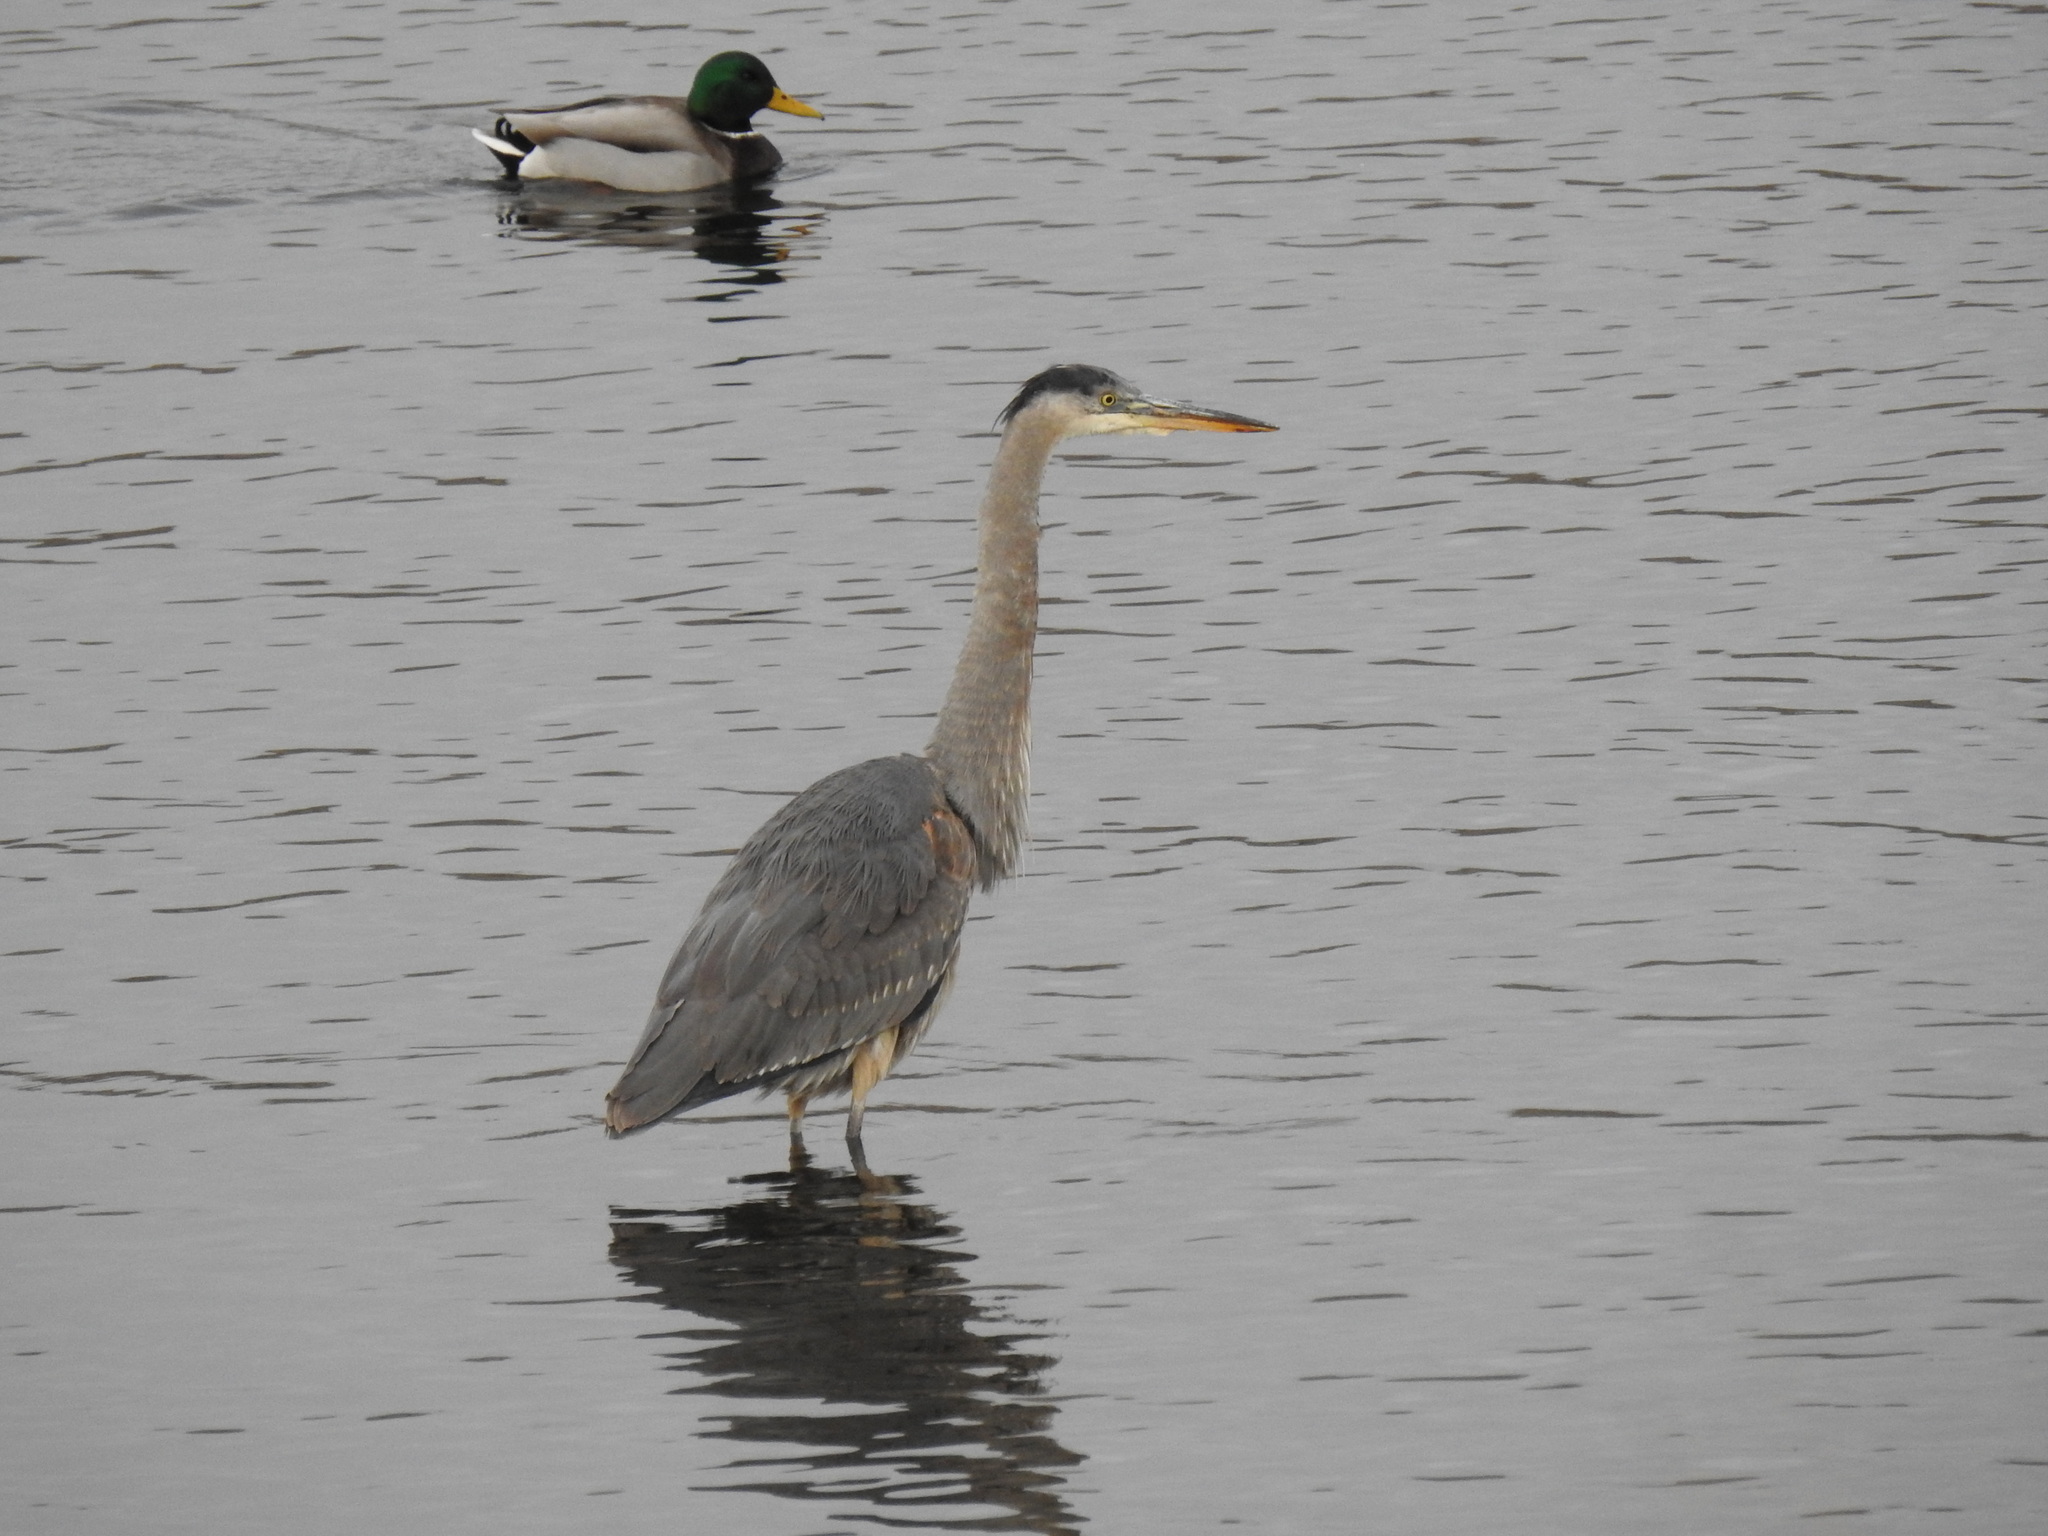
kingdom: Animalia
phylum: Chordata
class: Aves
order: Pelecaniformes
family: Ardeidae
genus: Ardea
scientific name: Ardea herodias
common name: Great blue heron
